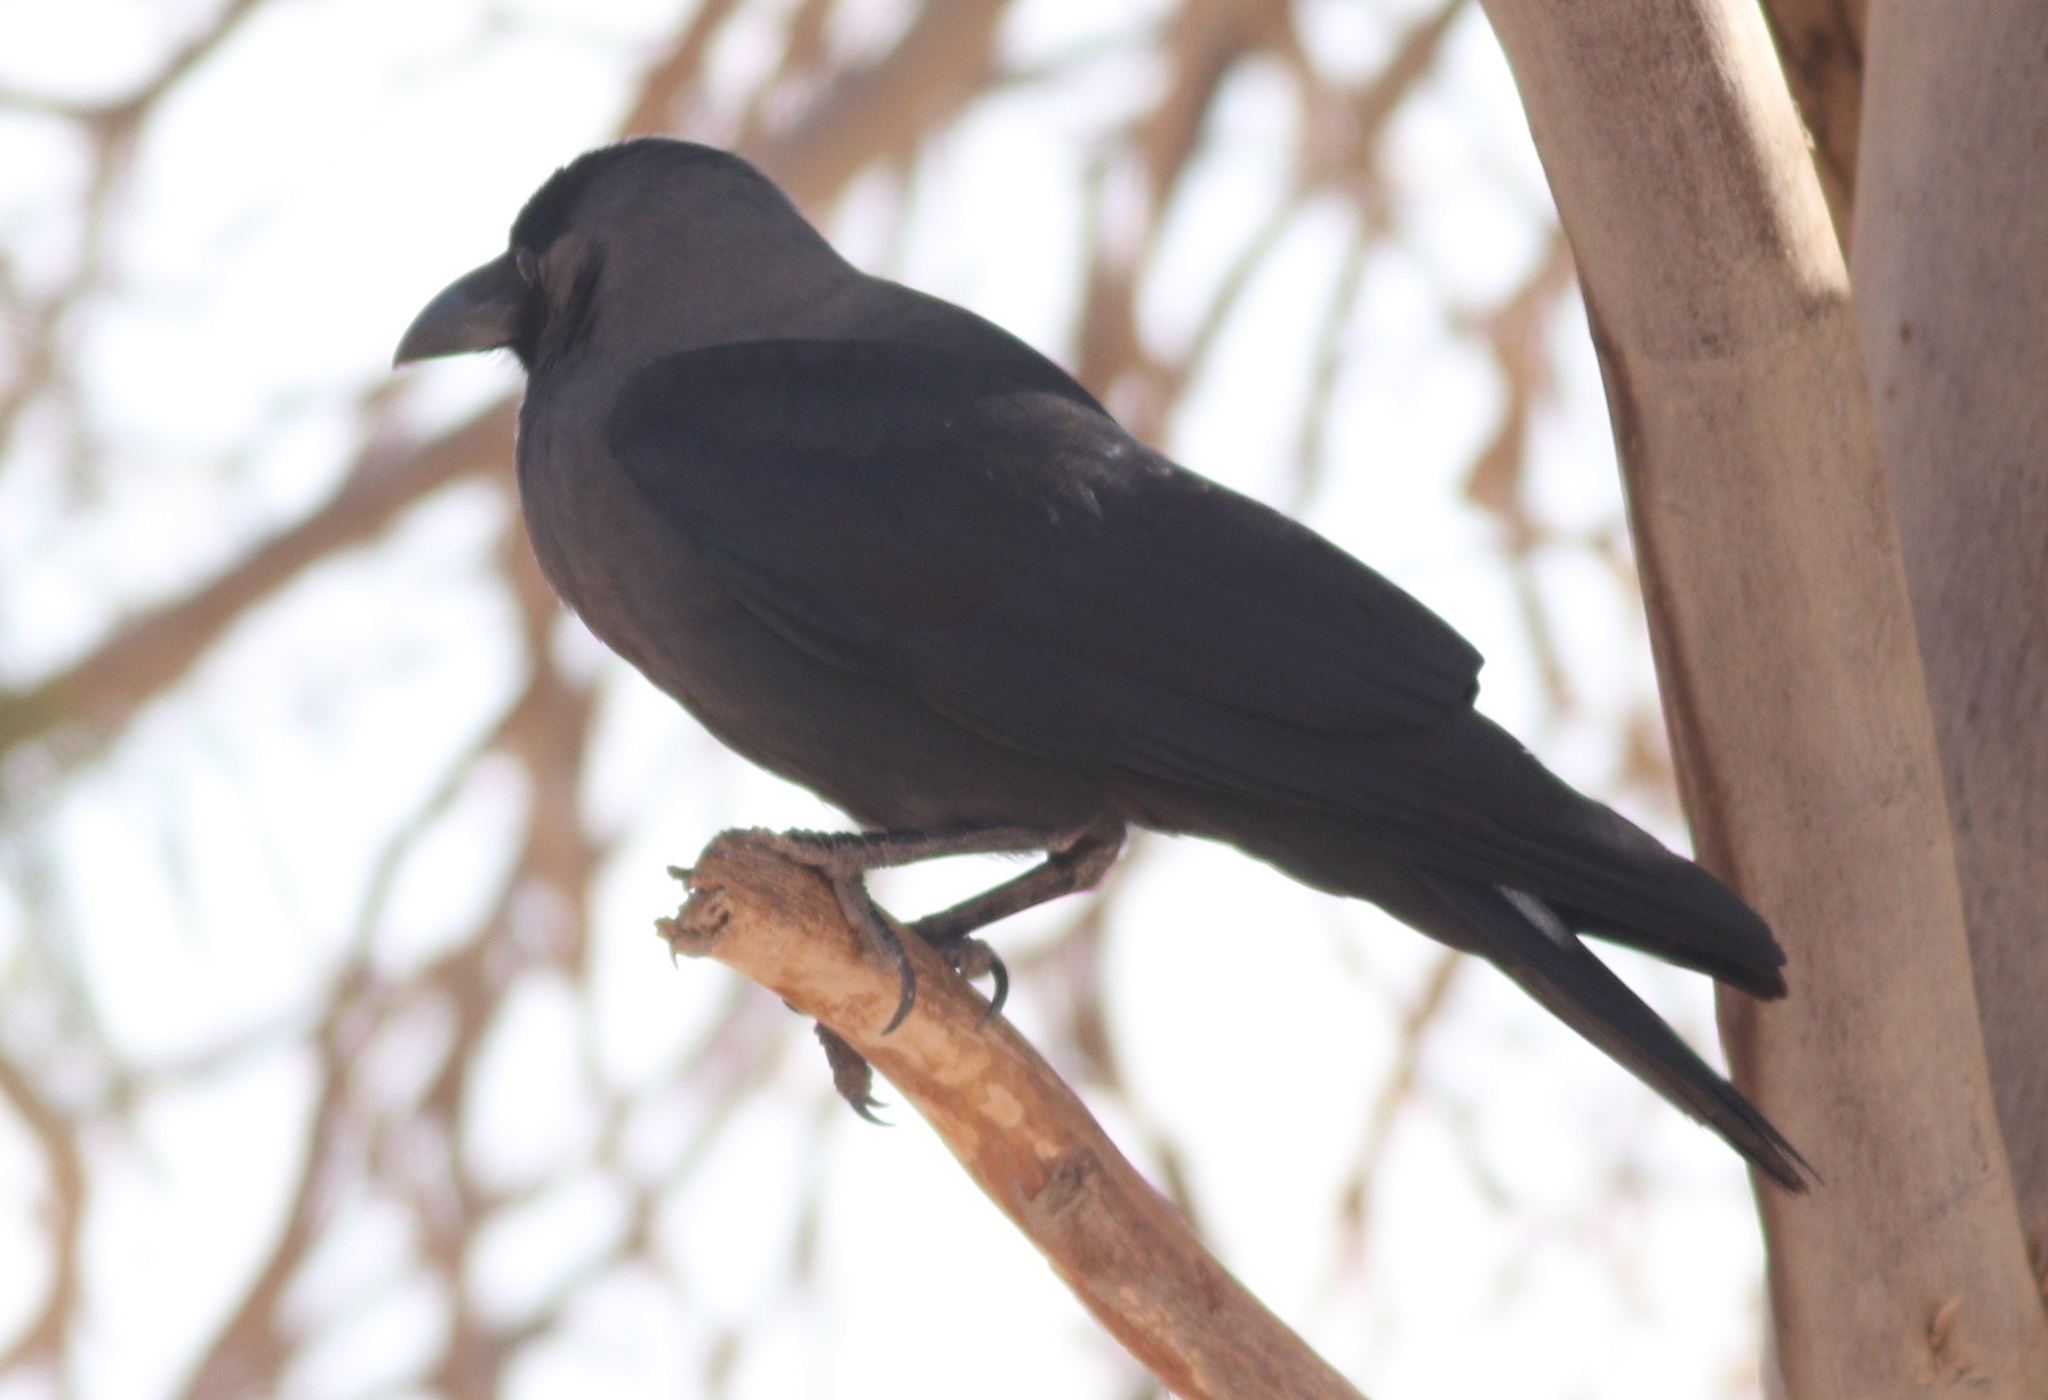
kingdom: Animalia
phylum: Chordata
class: Aves
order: Passeriformes
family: Corvidae
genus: Corvus
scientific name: Corvus splendens
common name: House crow
